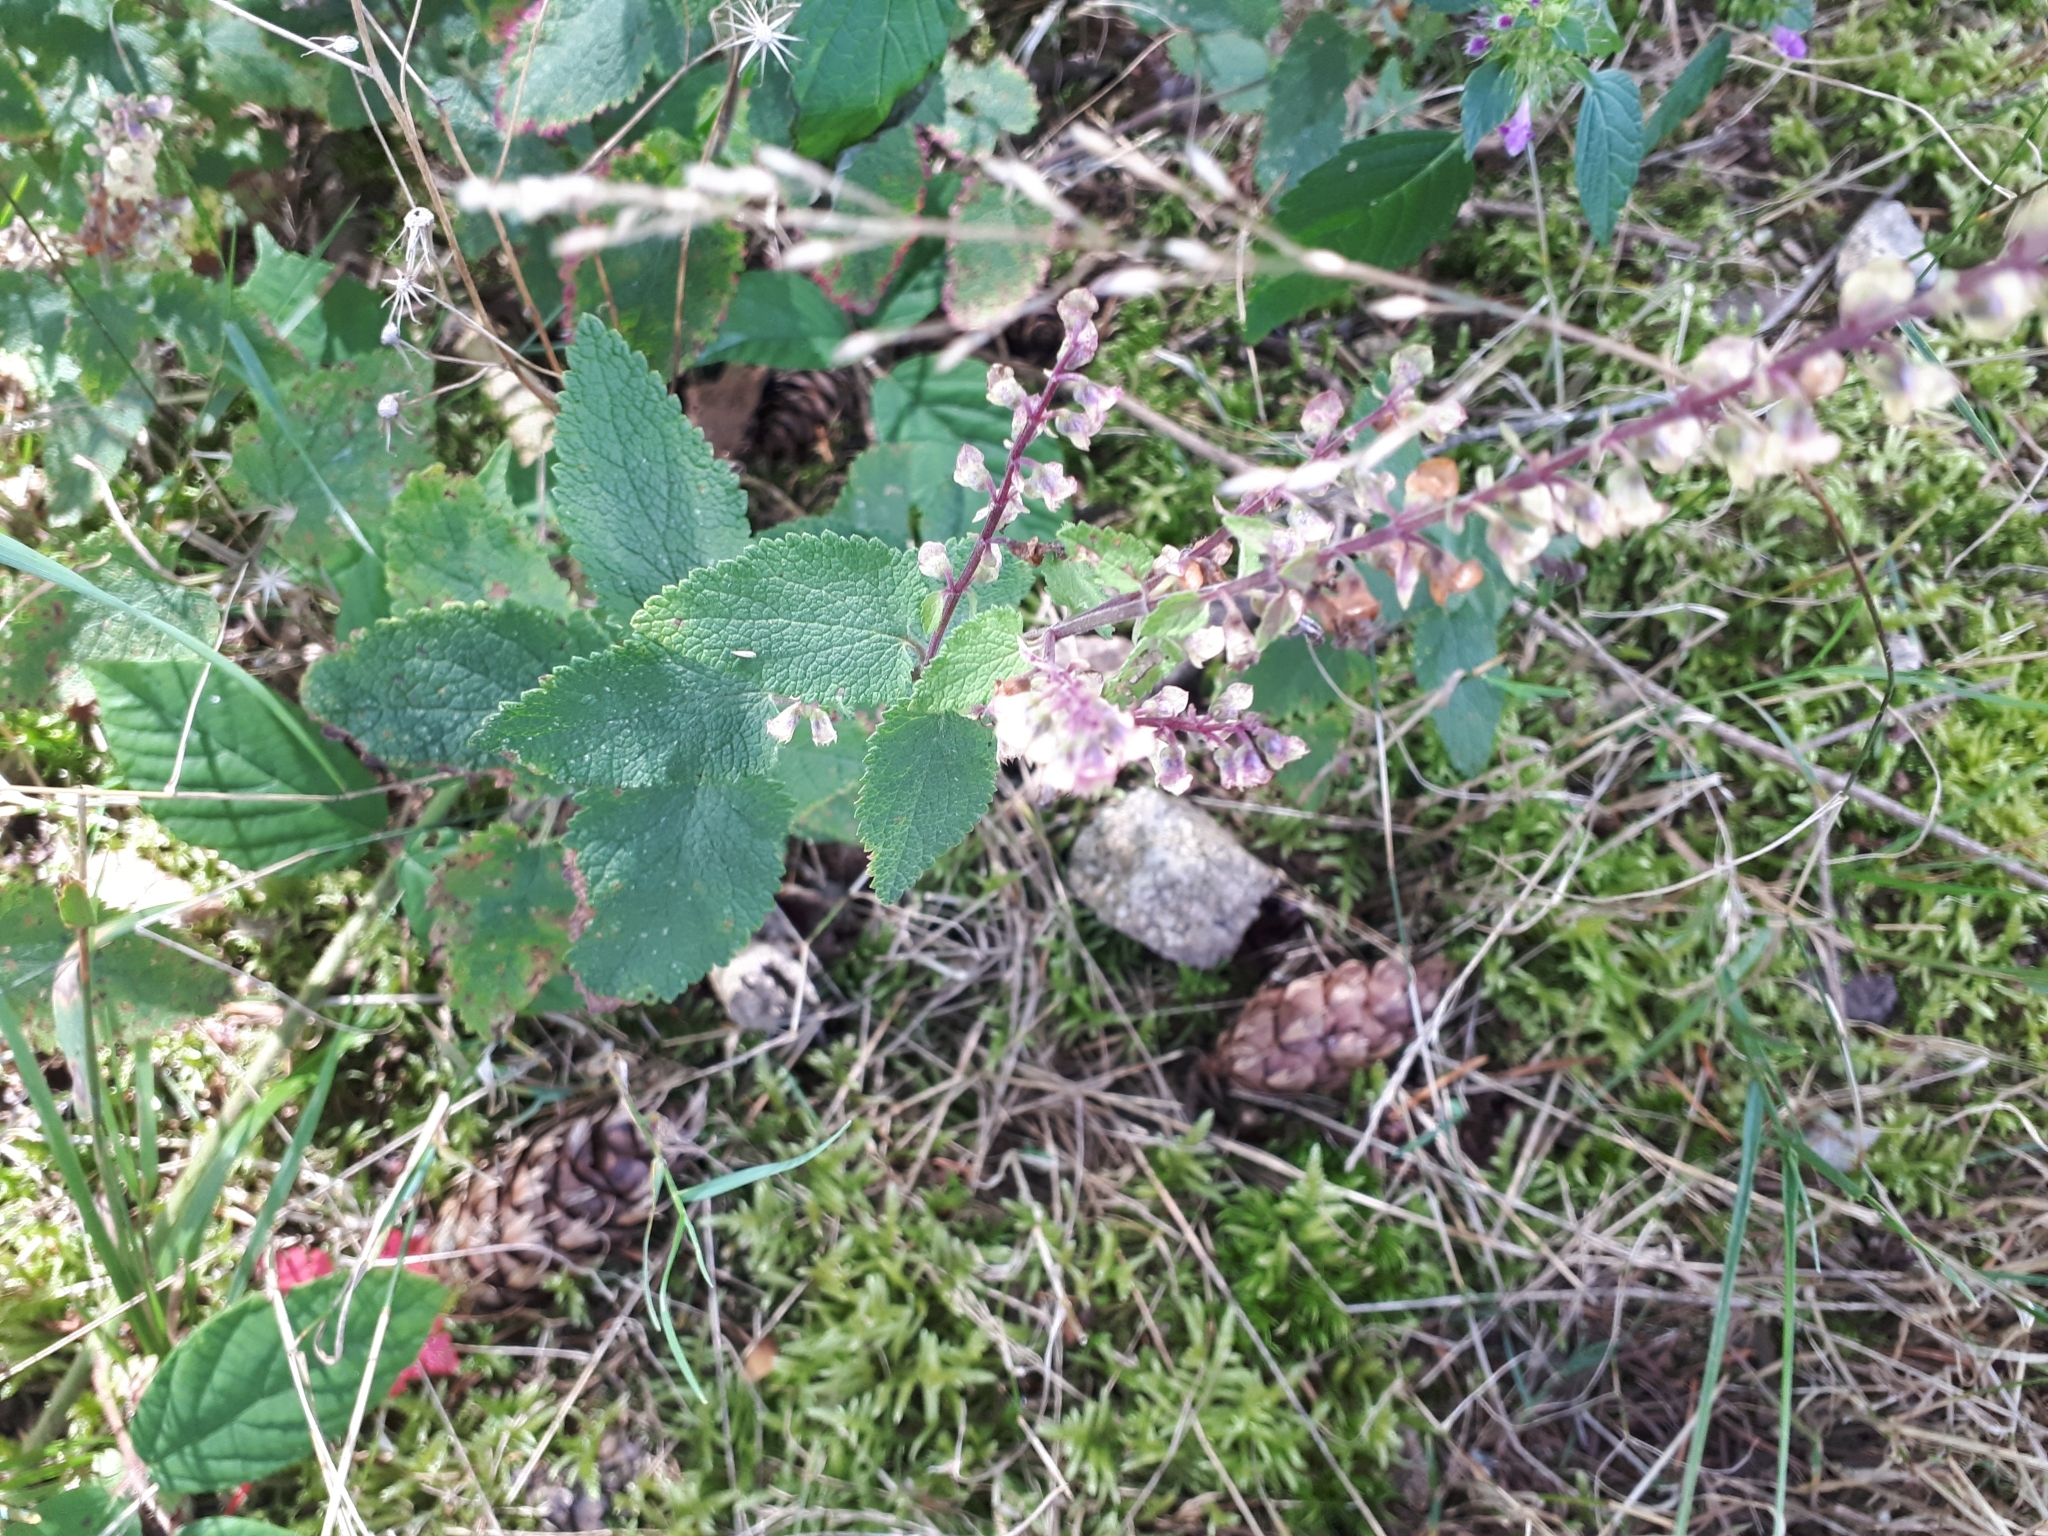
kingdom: Plantae
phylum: Tracheophyta
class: Magnoliopsida
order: Lamiales
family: Lamiaceae
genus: Teucrium
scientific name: Teucrium scorodonia
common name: Woodland germander
